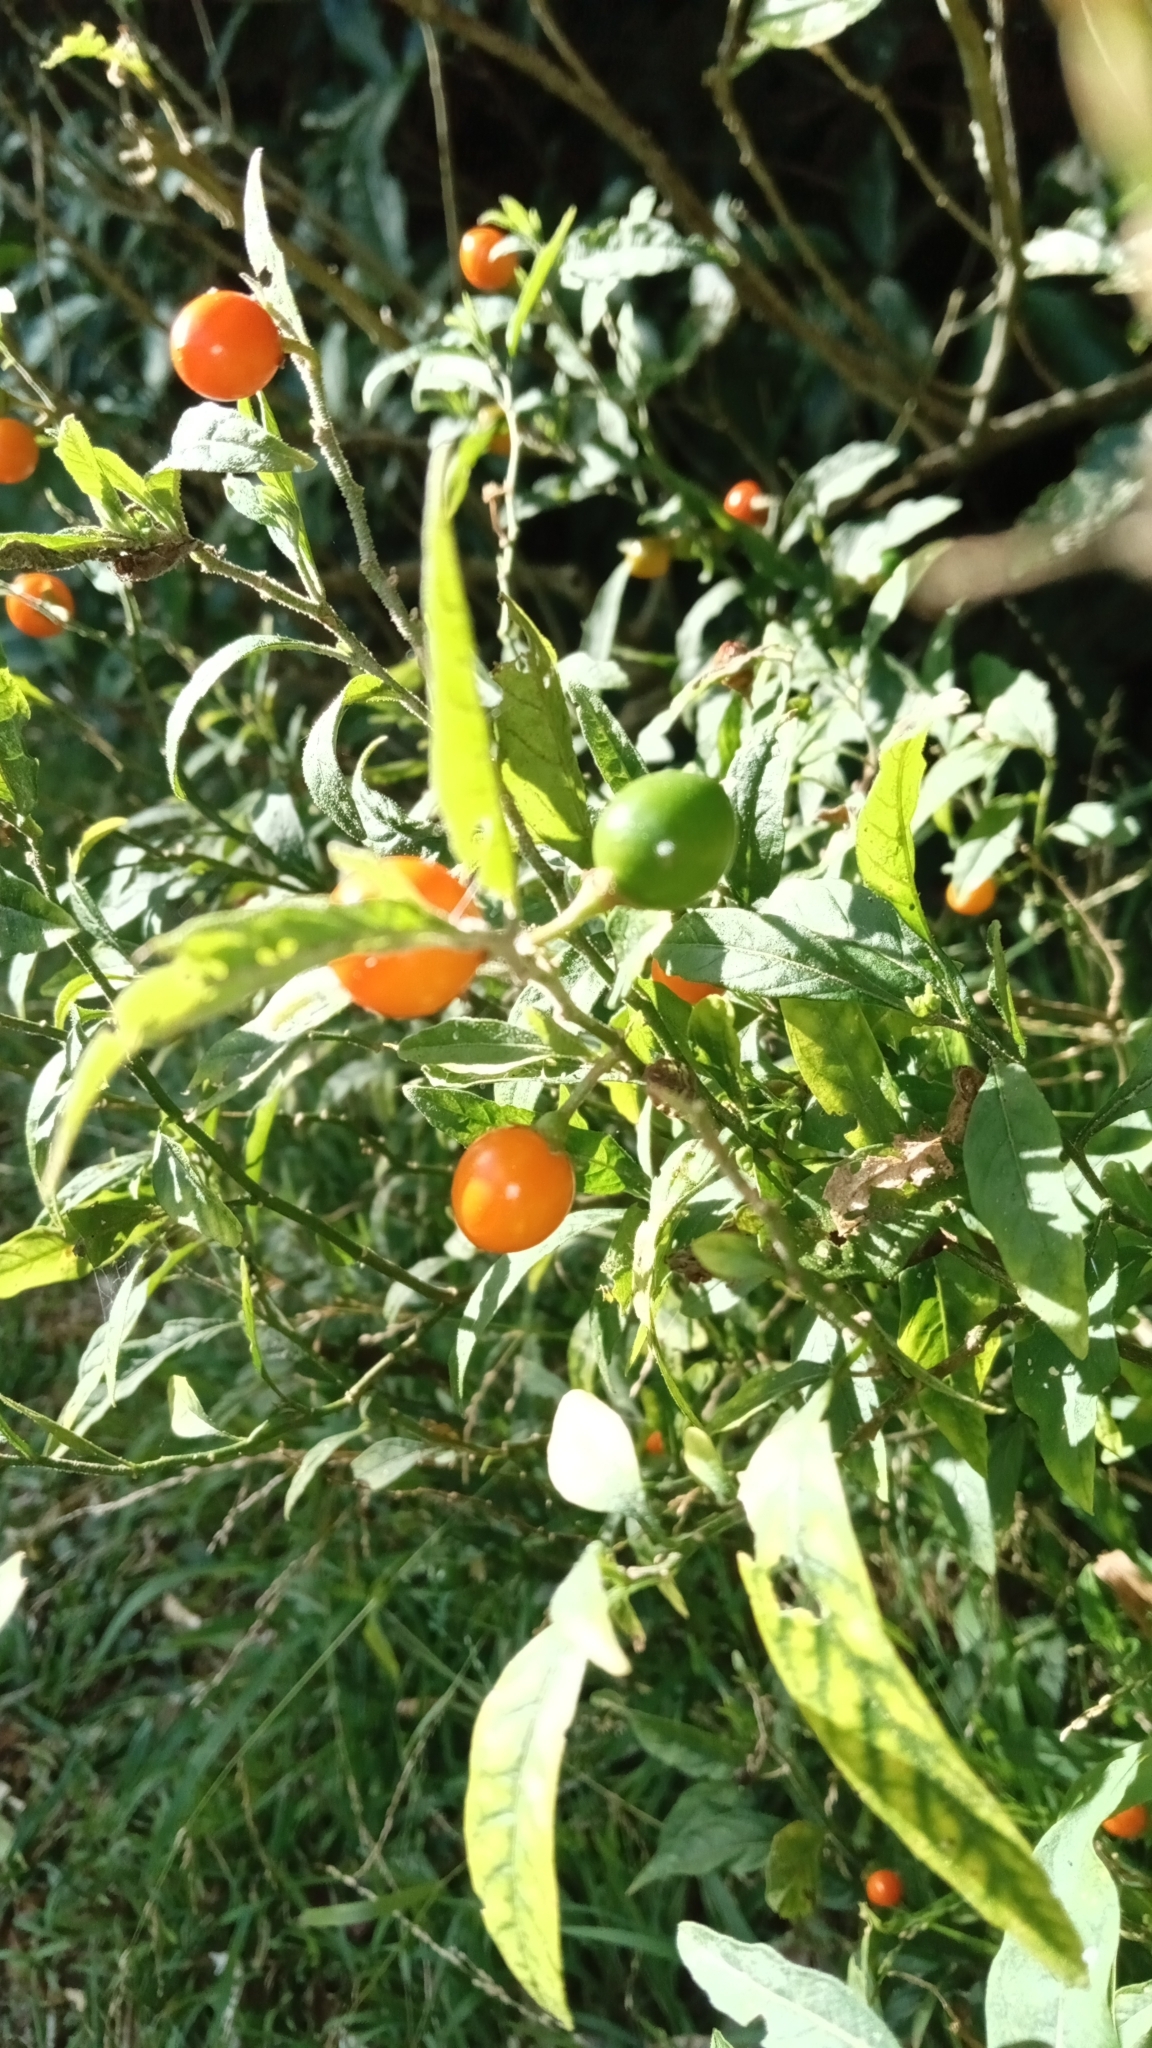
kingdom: Plantae
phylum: Tracheophyta
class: Magnoliopsida
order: Solanales
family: Solanaceae
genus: Solanum
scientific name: Solanum pseudocapsicum
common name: Jerusalem cherry
